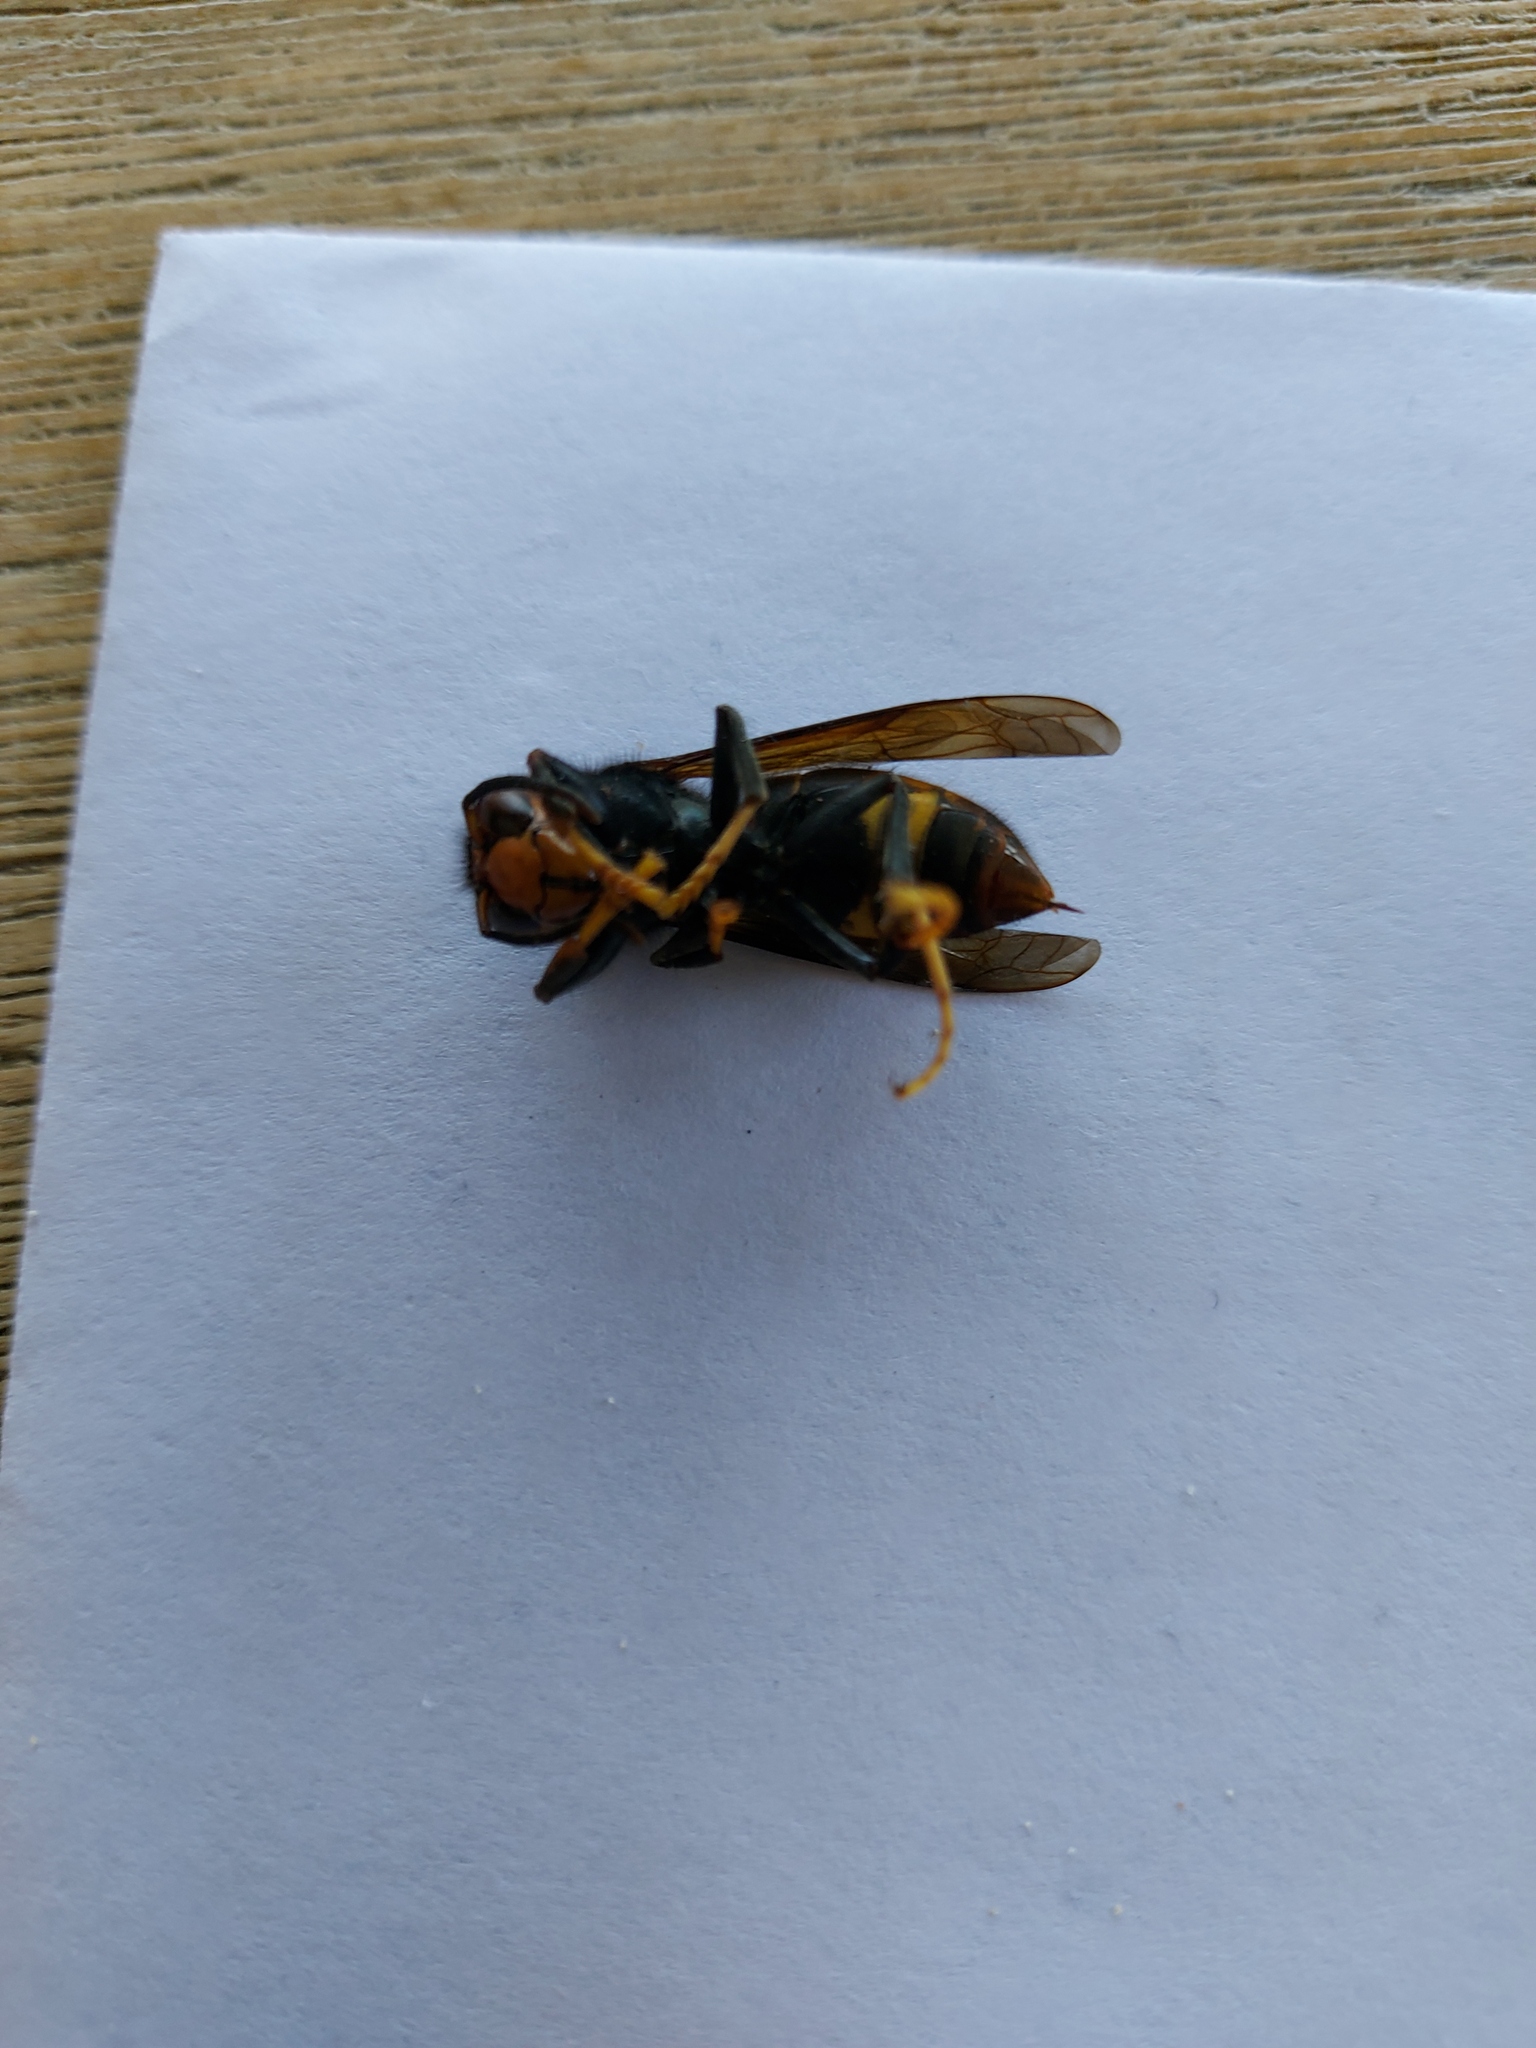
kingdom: Animalia
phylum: Arthropoda
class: Insecta
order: Hymenoptera
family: Vespidae
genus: Vespa
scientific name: Vespa velutina
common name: Asian hornet
